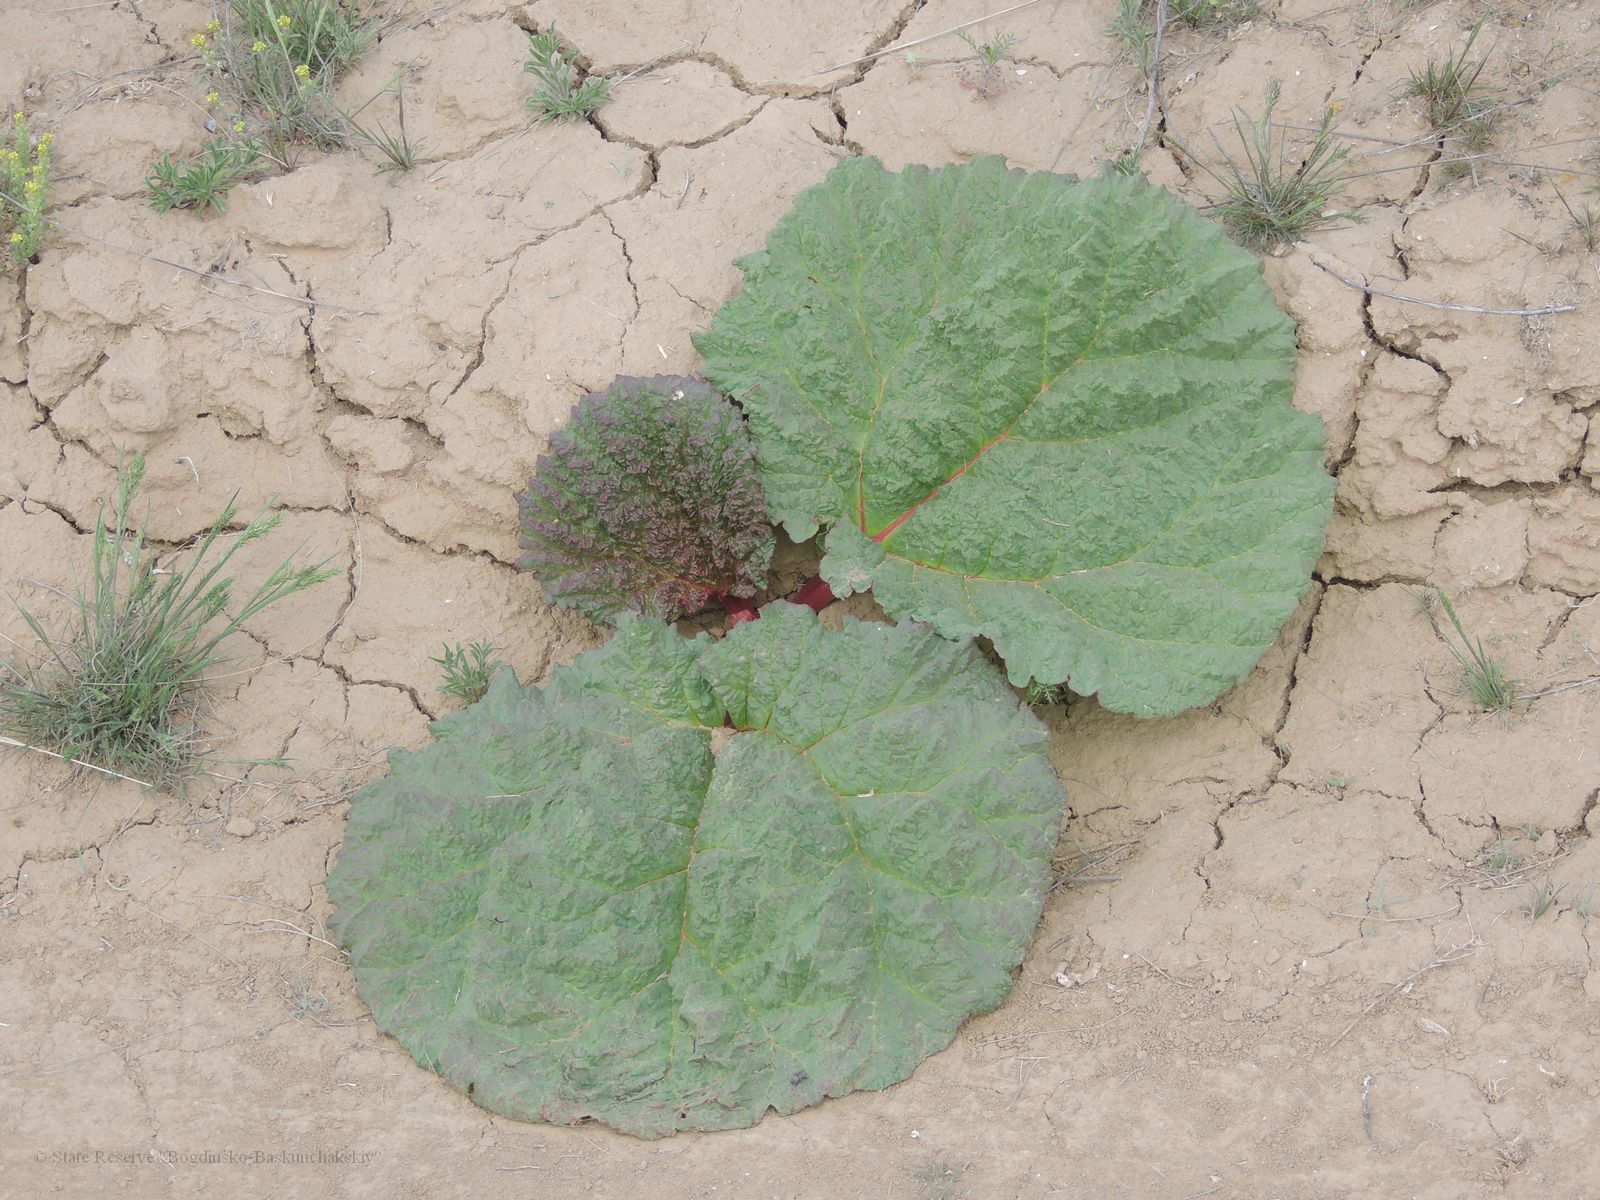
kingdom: Plantae
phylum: Tracheophyta
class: Magnoliopsida
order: Caryophyllales
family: Polygonaceae
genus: Rheum
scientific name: Rheum tataricum
